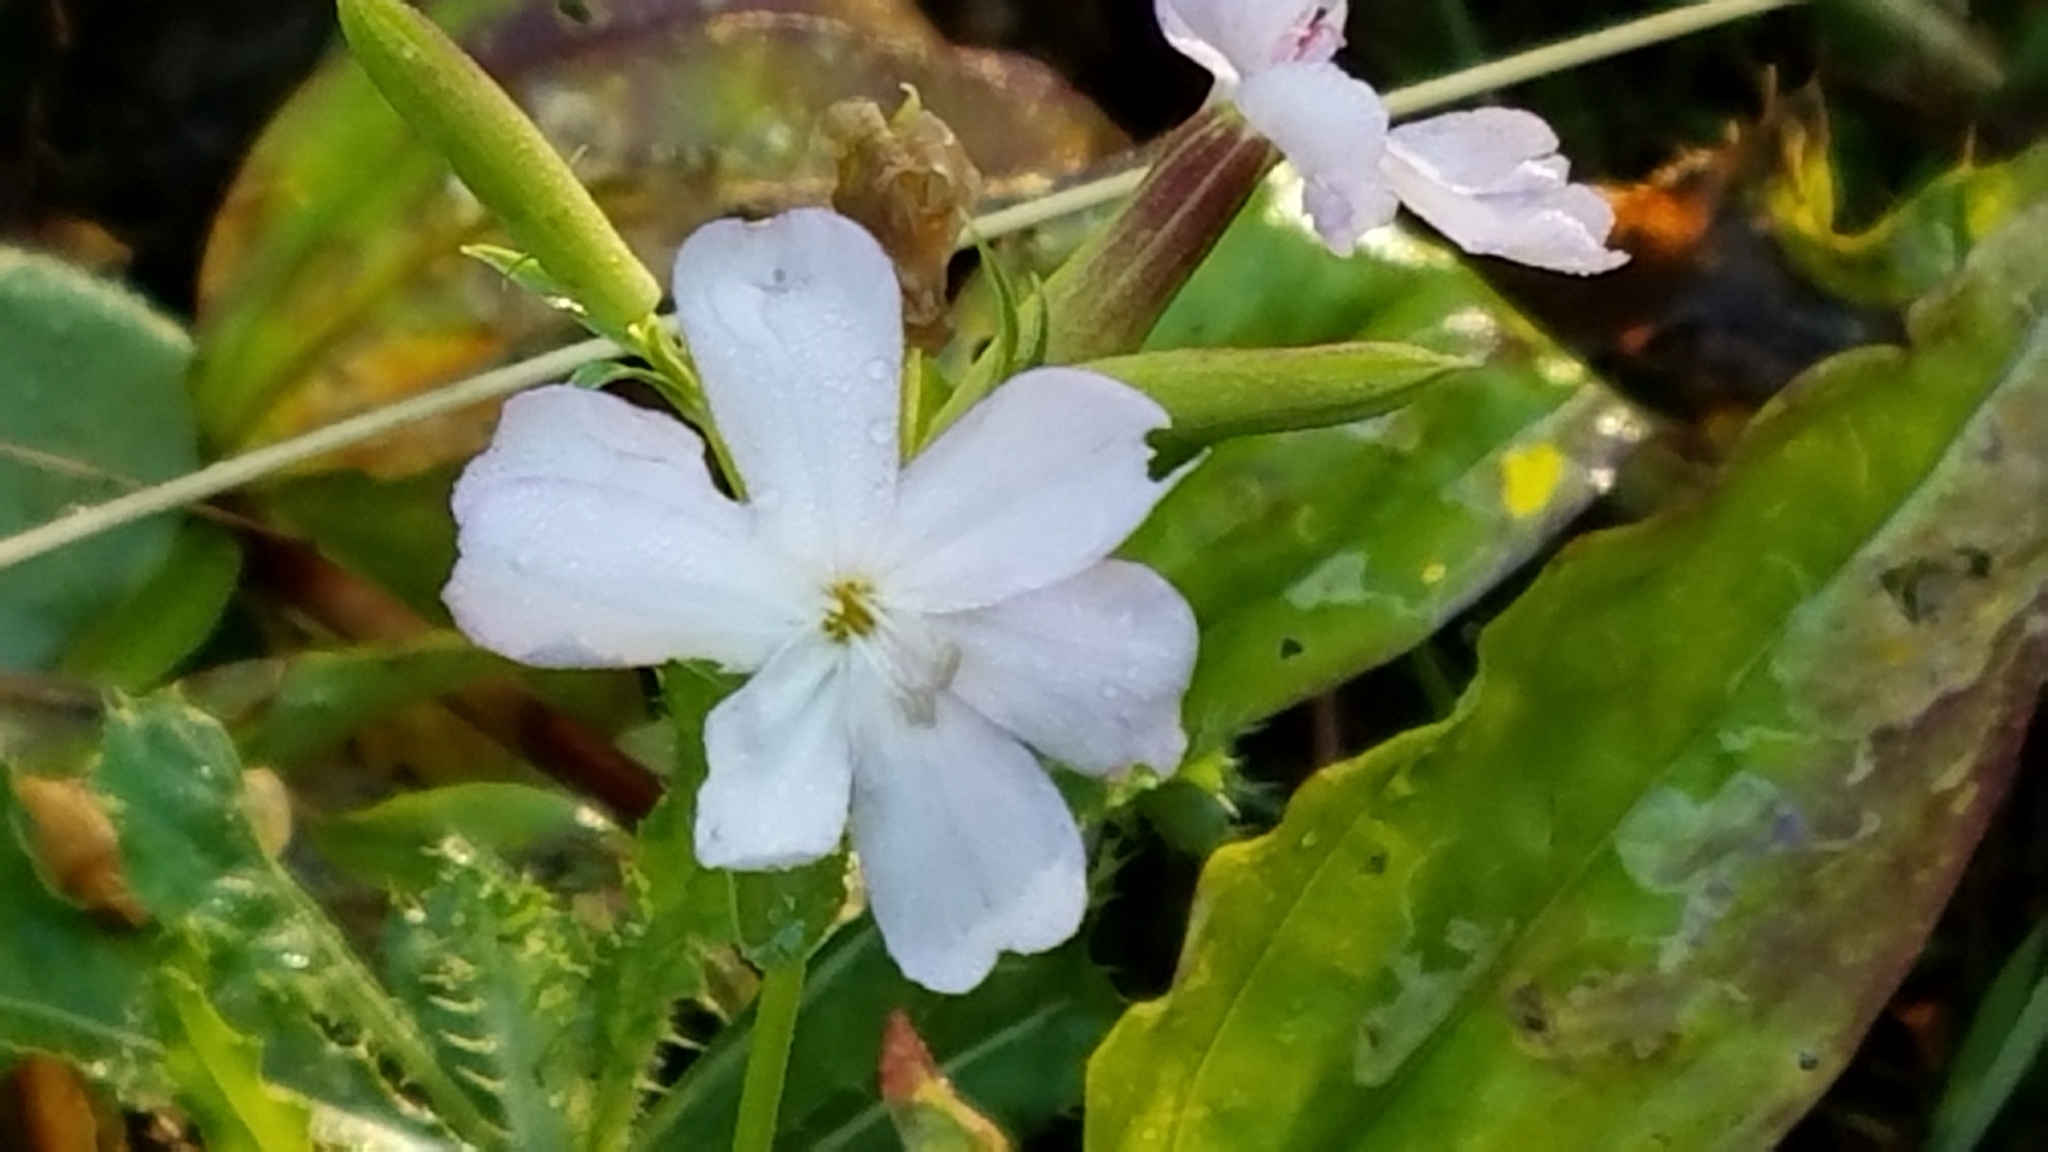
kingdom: Plantae
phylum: Tracheophyta
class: Magnoliopsida
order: Caryophyllales
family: Caryophyllaceae
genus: Saponaria
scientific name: Saponaria officinalis
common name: Soapwort
